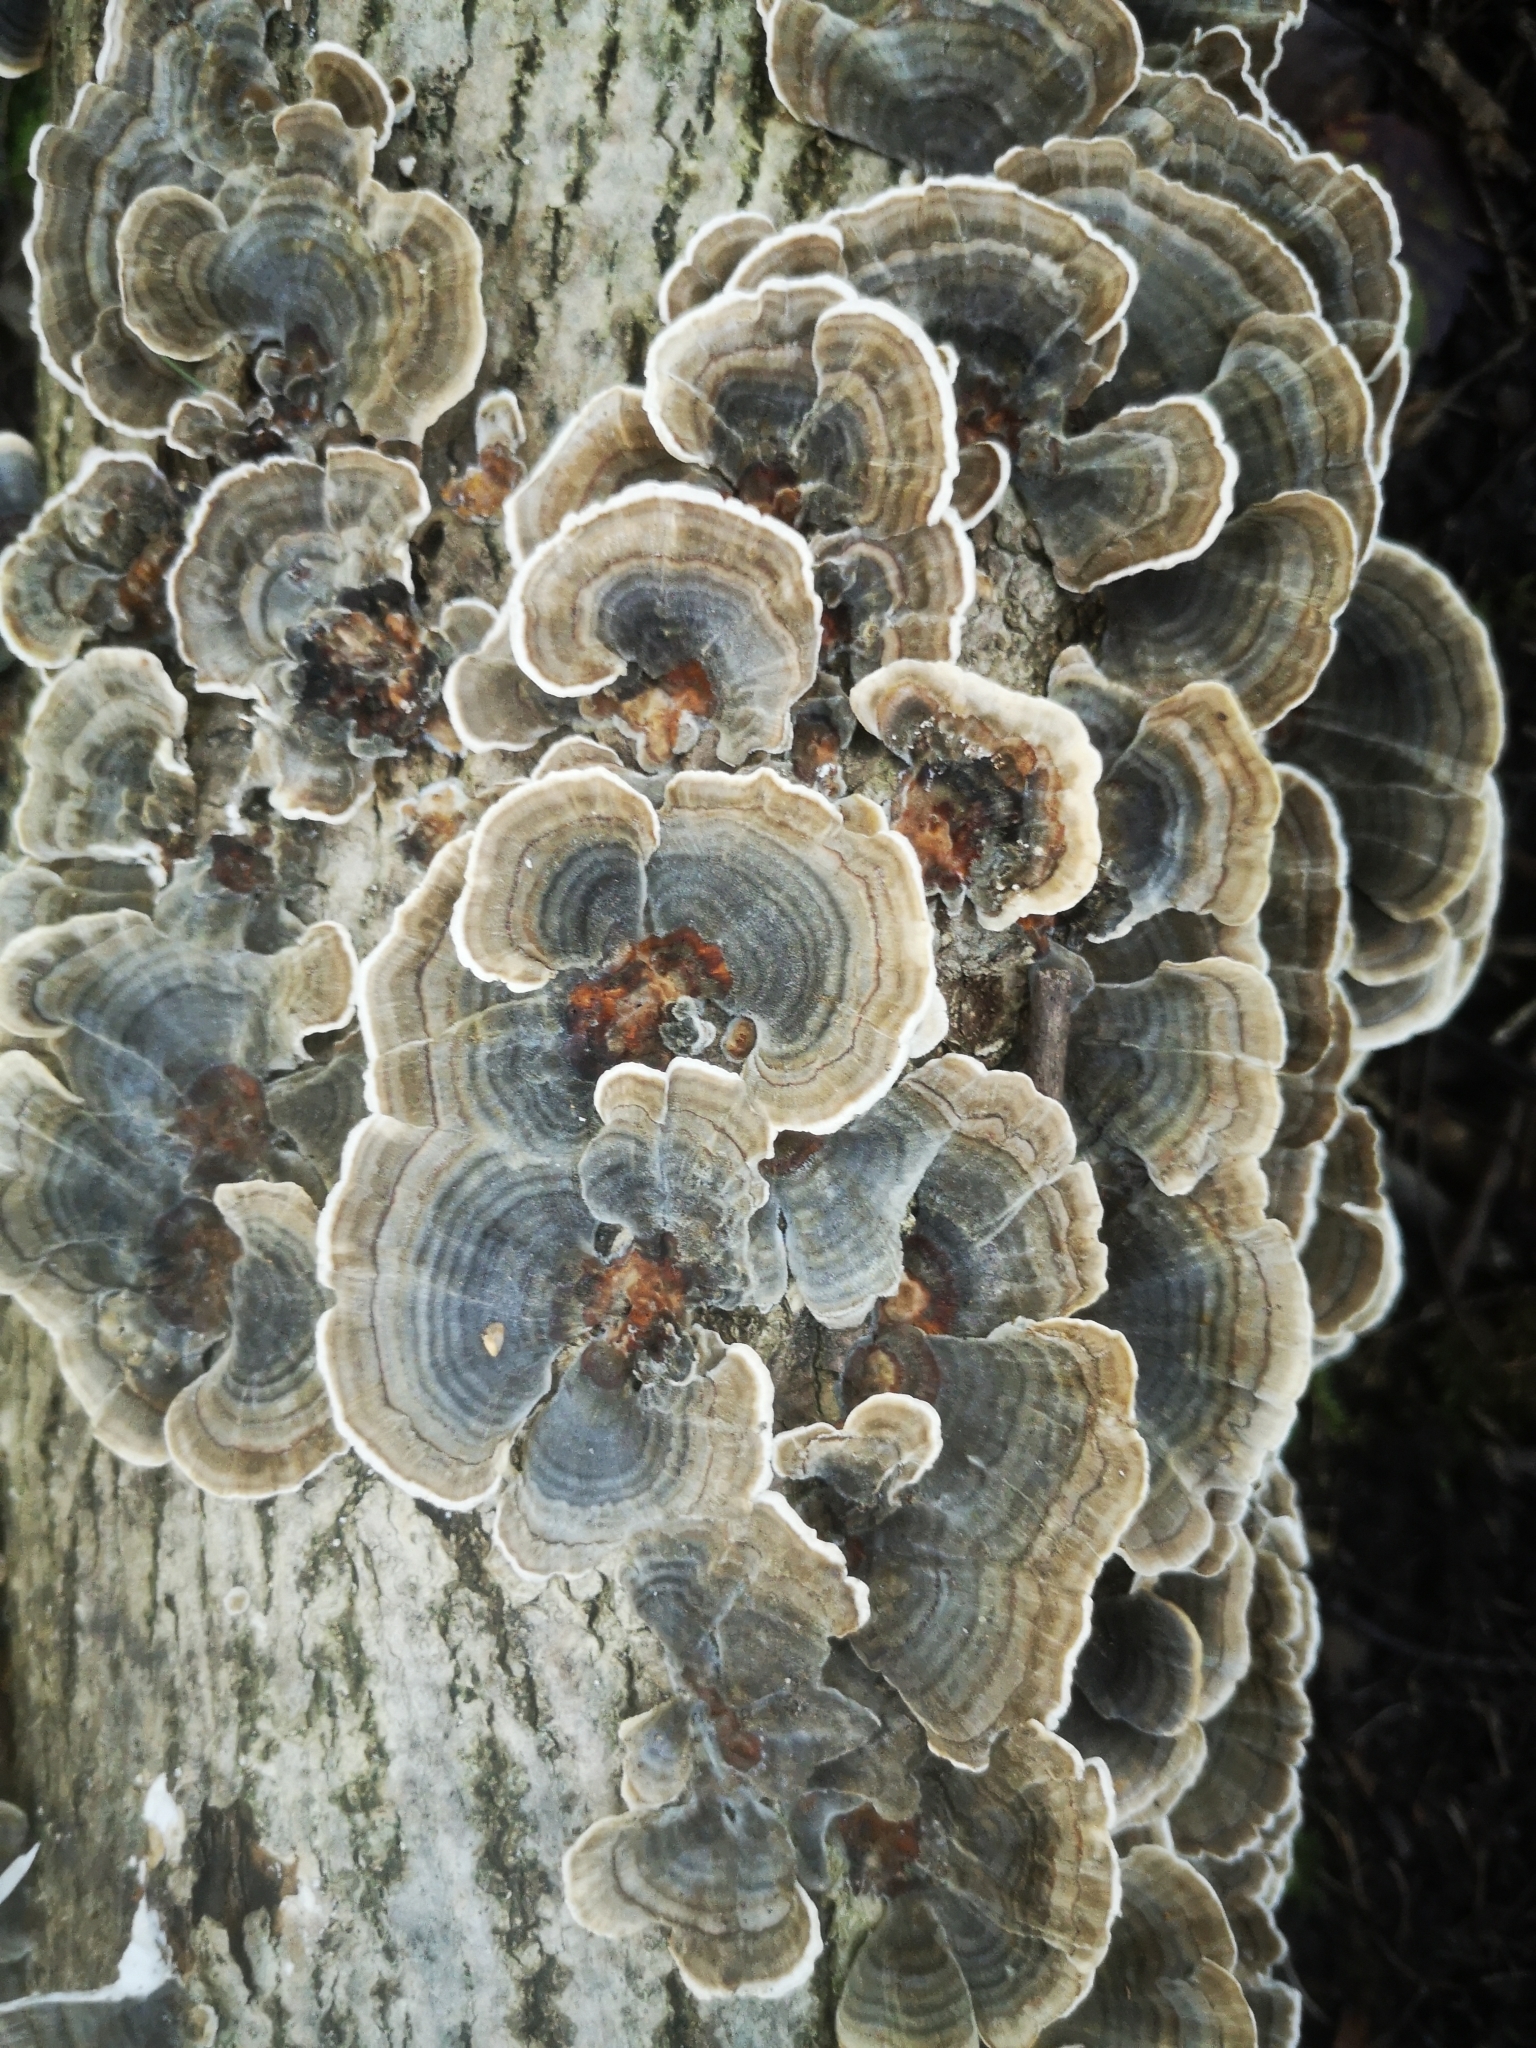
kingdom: Fungi
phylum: Basidiomycota
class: Agaricomycetes
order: Polyporales
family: Polyporaceae
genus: Trametes
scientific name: Trametes versicolor
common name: Turkeytail
